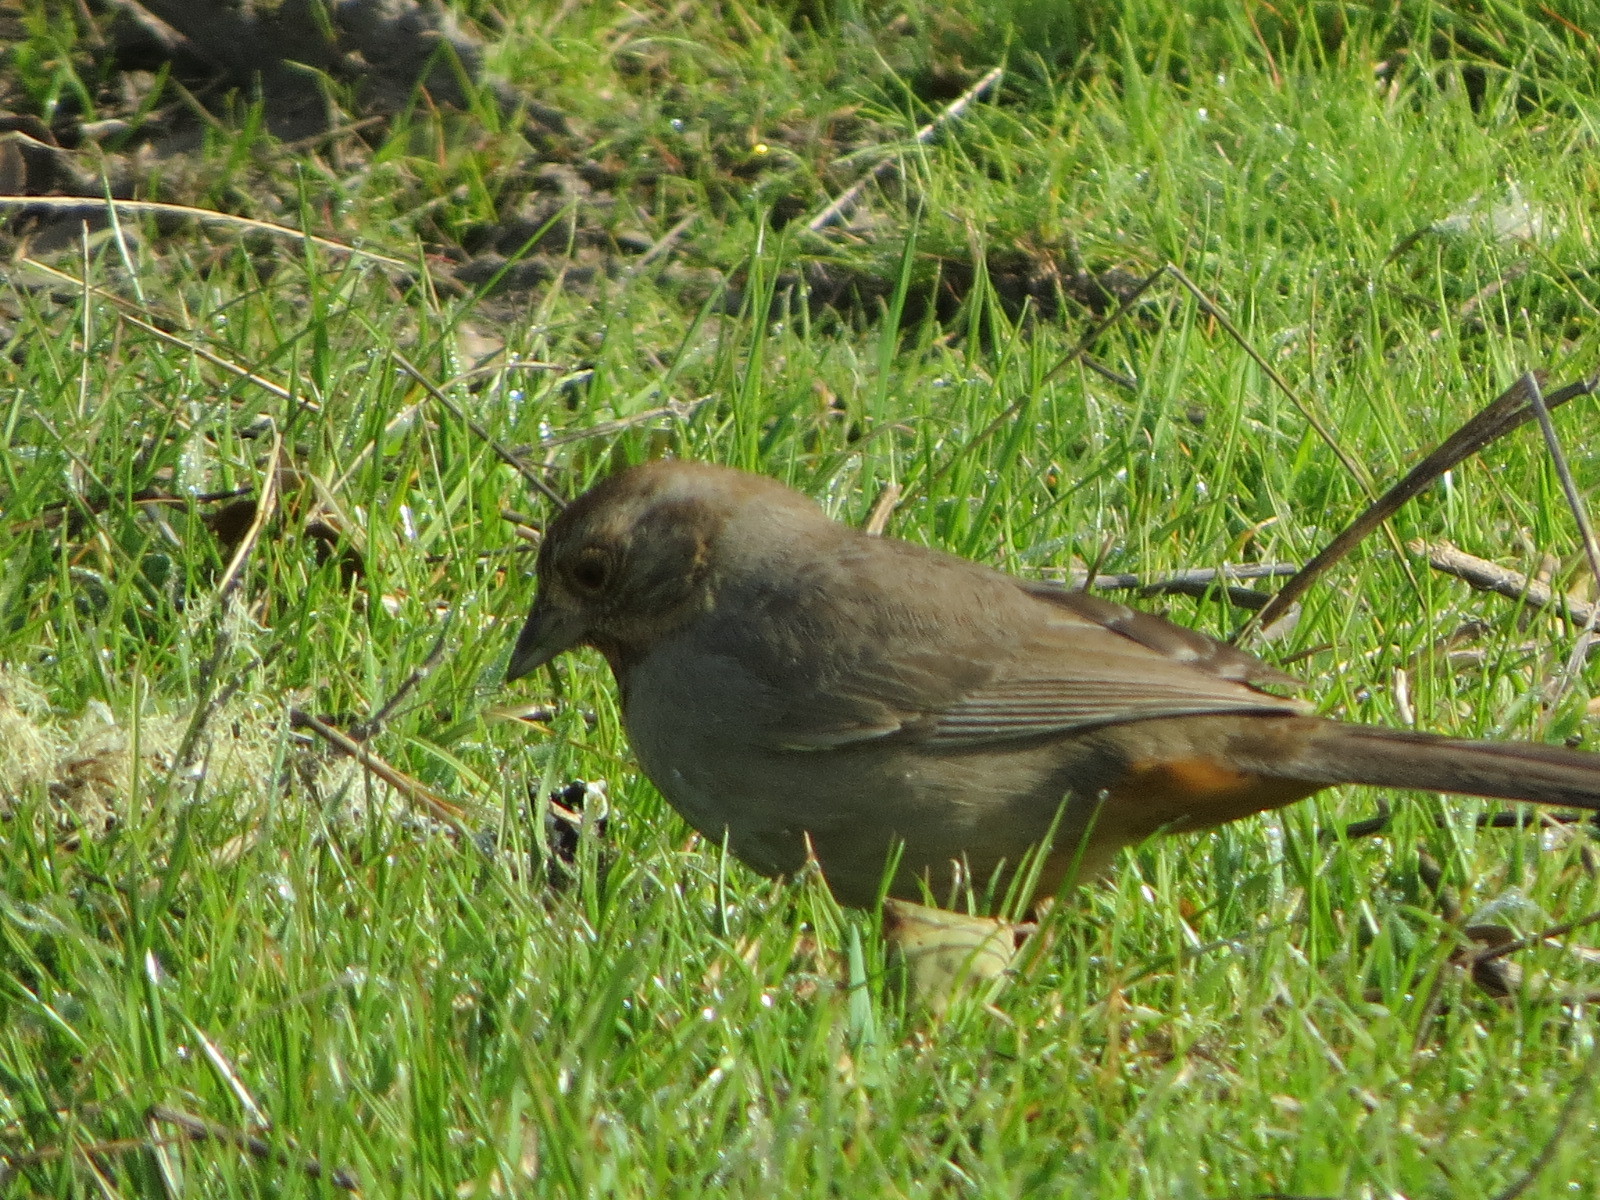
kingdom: Animalia
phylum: Chordata
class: Aves
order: Passeriformes
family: Passerellidae
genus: Melozone
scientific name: Melozone crissalis
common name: California towhee
